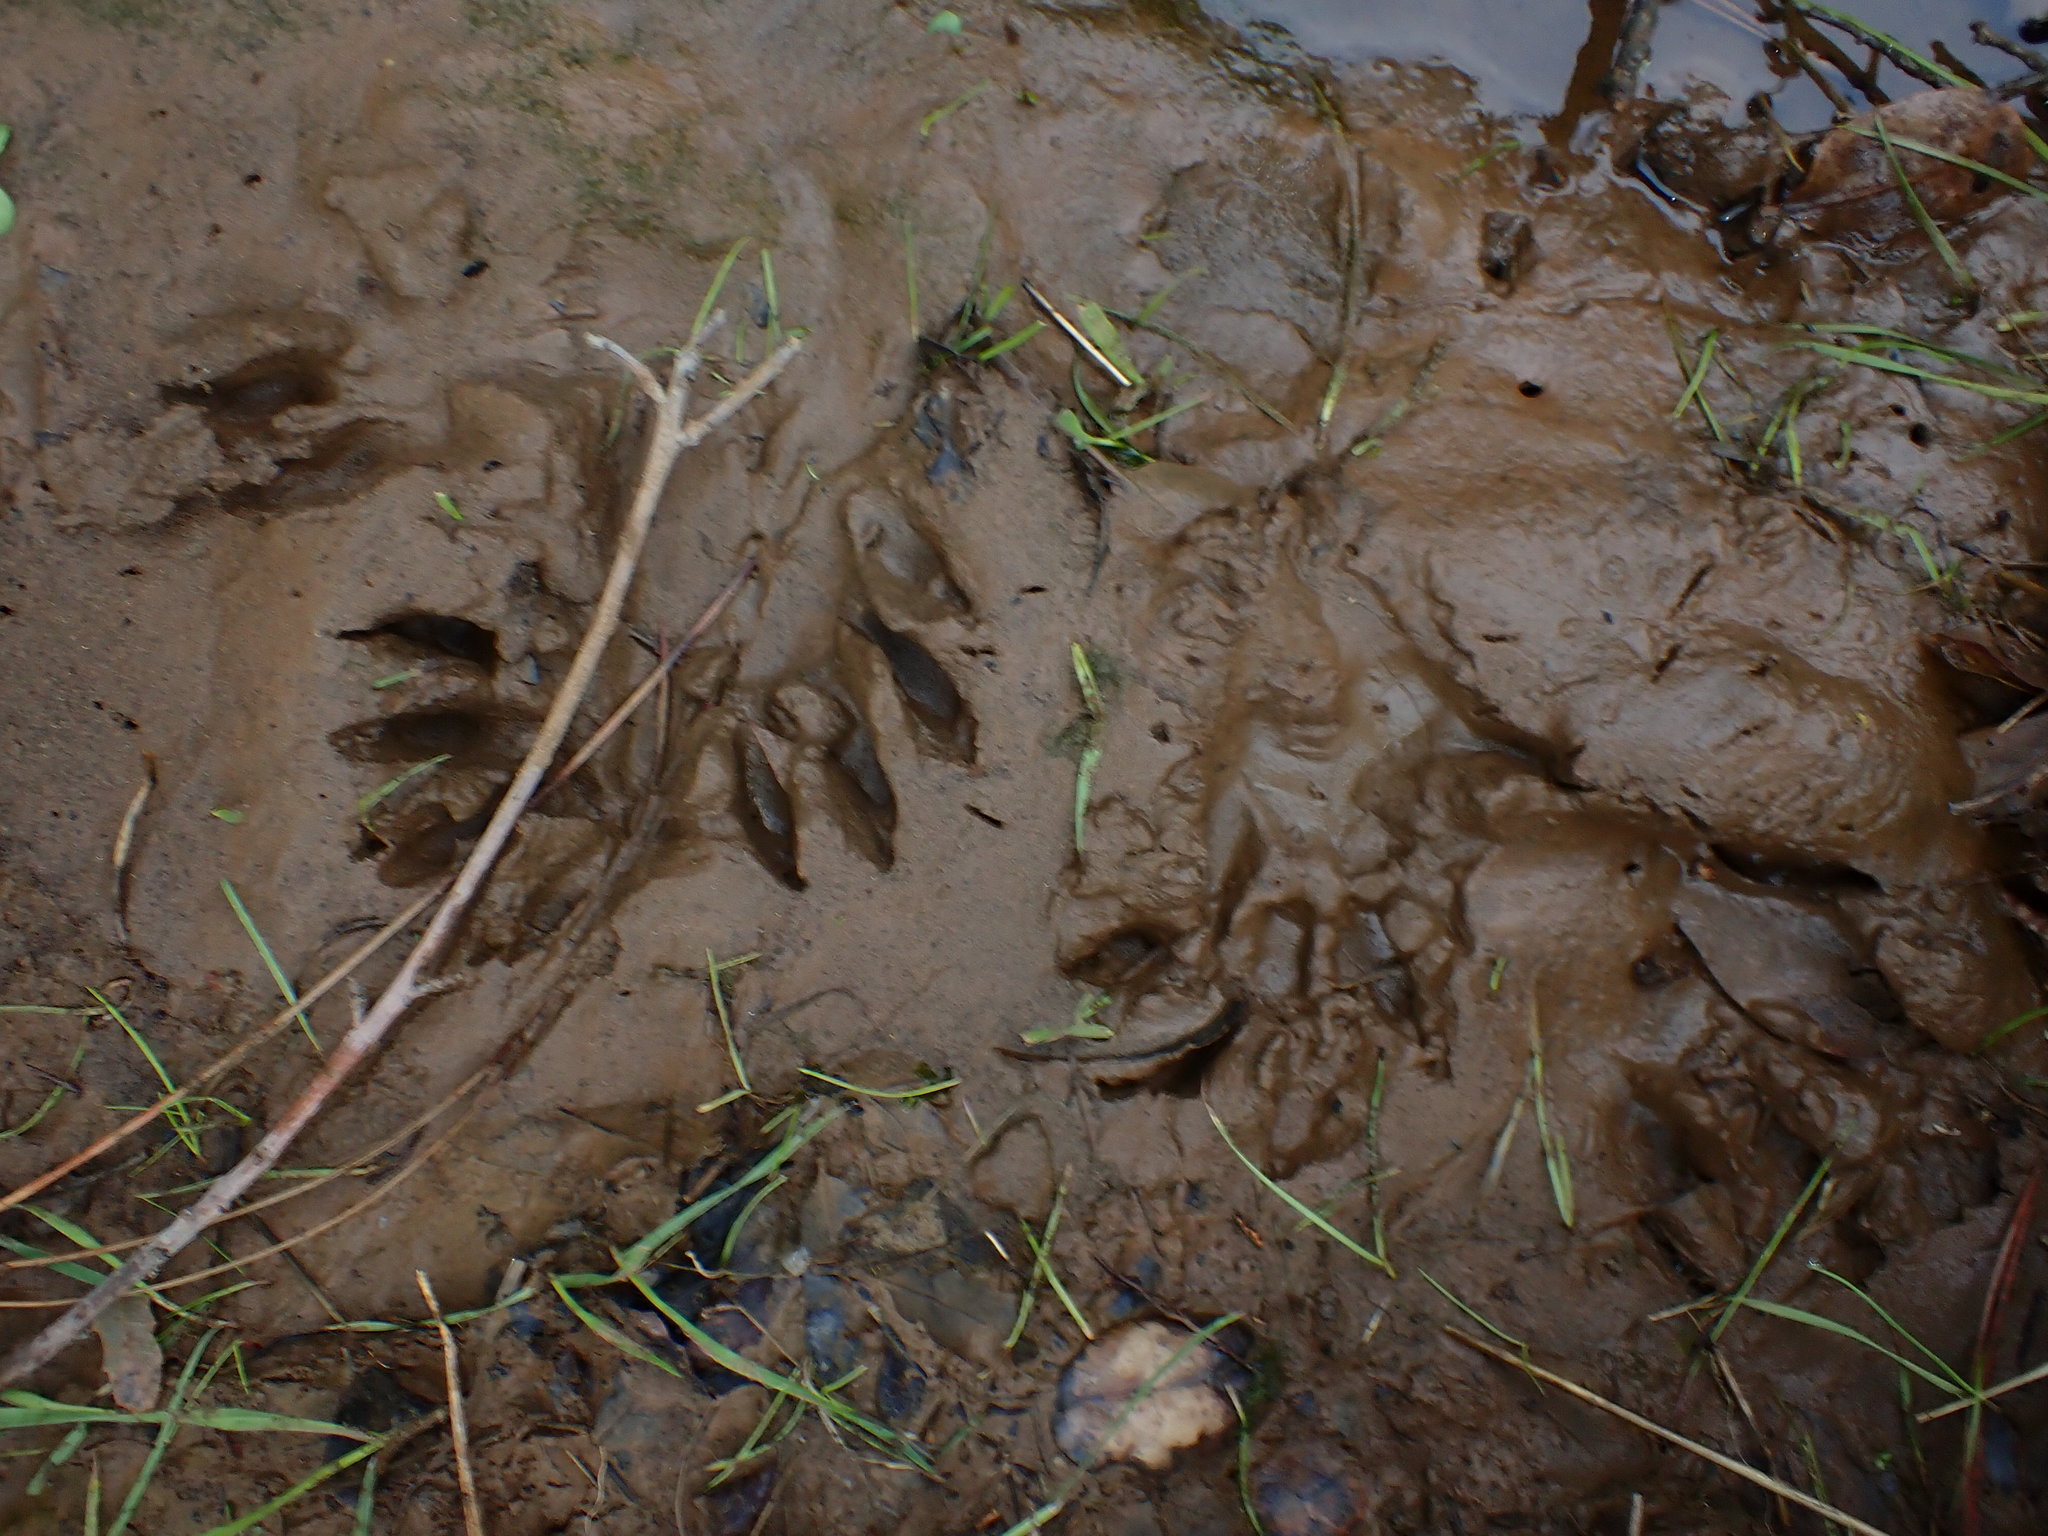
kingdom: Animalia
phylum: Chordata
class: Mammalia
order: Carnivora
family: Procyonidae
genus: Procyon
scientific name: Procyon lotor
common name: Raccoon
